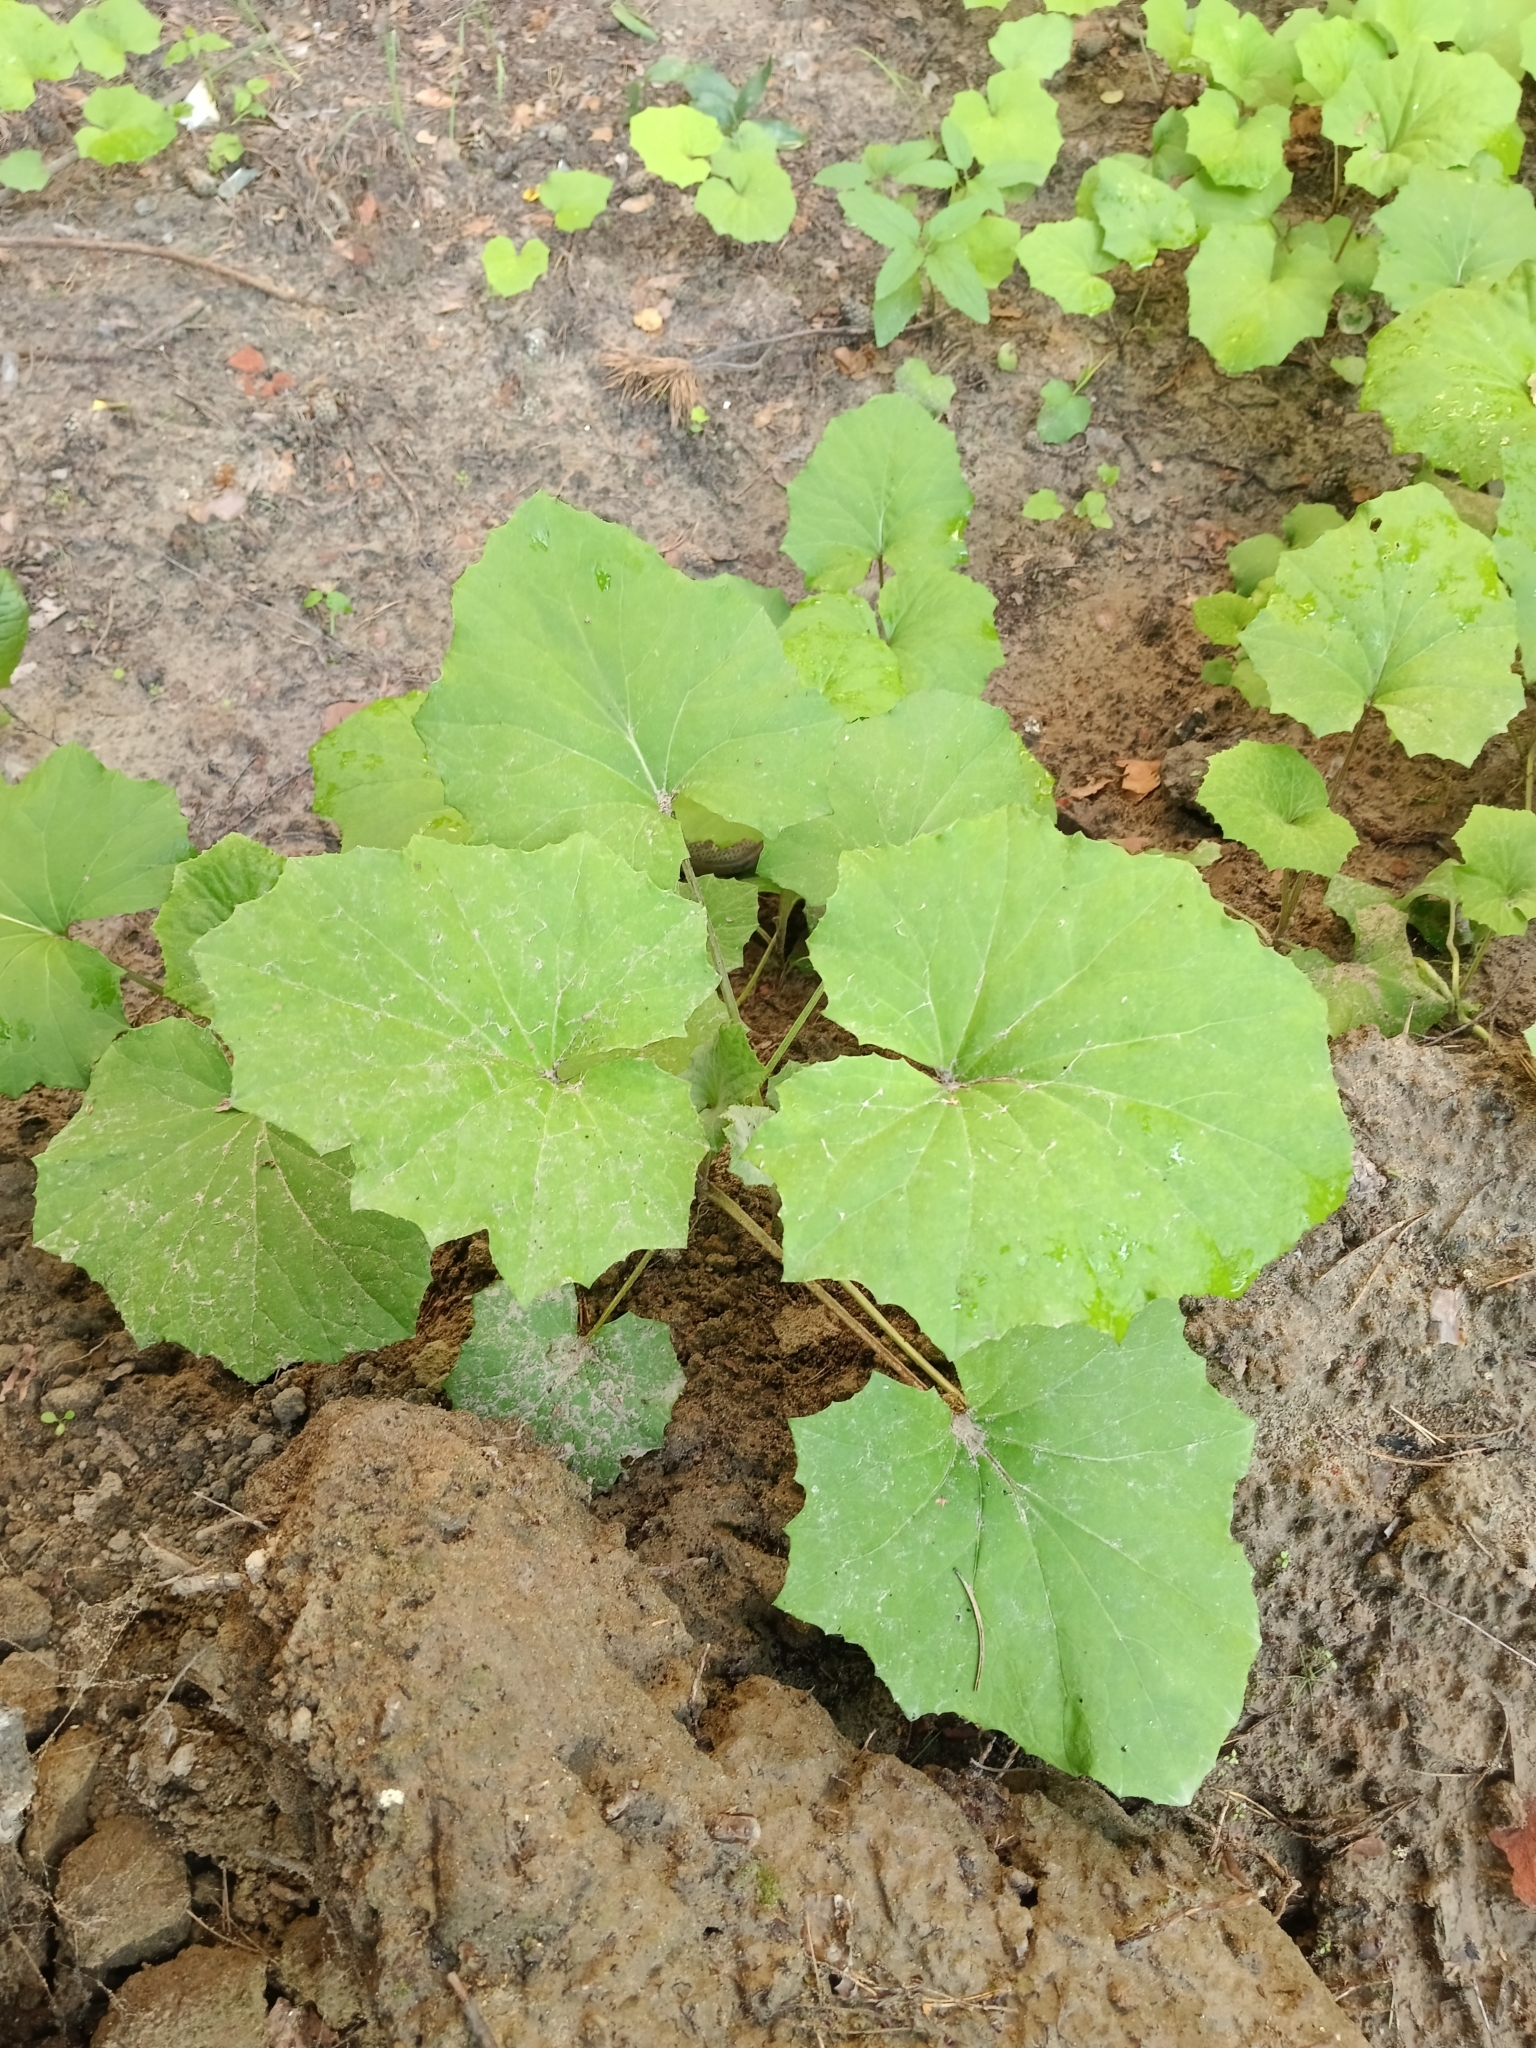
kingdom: Plantae
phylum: Tracheophyta
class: Magnoliopsida
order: Asterales
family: Asteraceae
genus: Tussilago
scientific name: Tussilago farfara
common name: Coltsfoot
